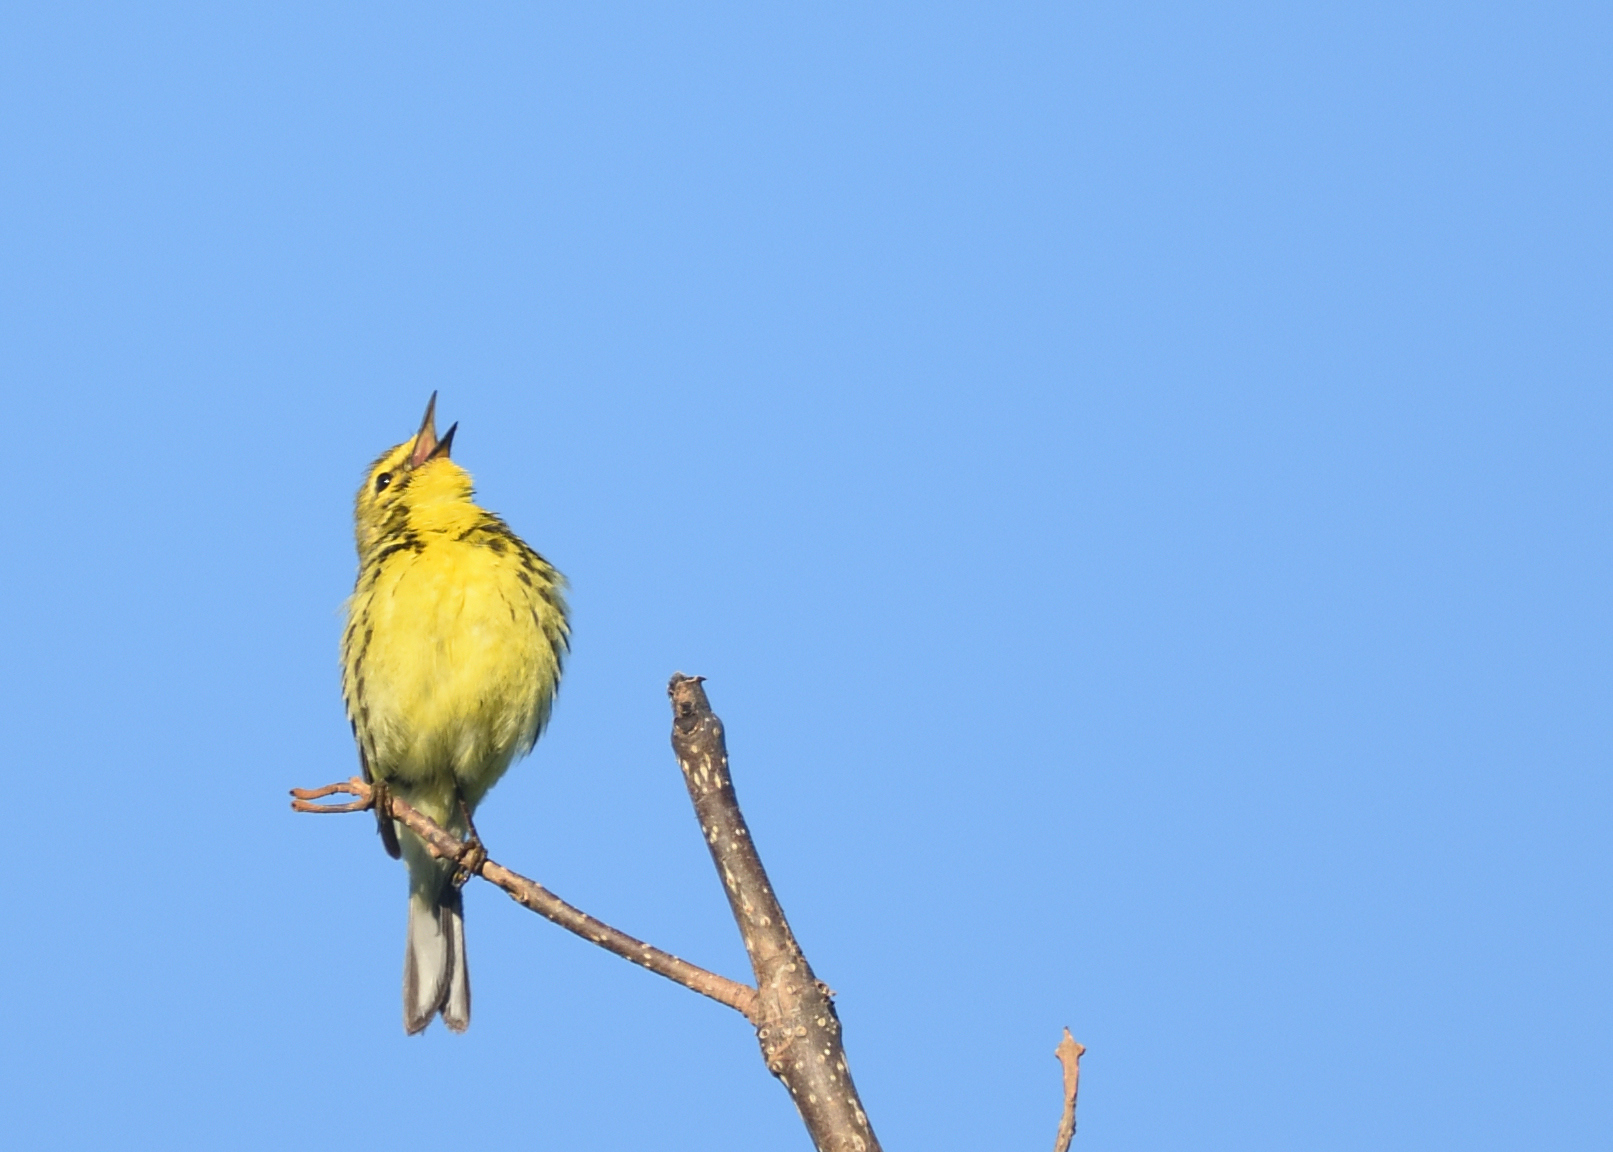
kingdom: Animalia
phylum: Chordata
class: Aves
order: Passeriformes
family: Parulidae
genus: Setophaga
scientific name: Setophaga discolor
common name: Prairie warbler
